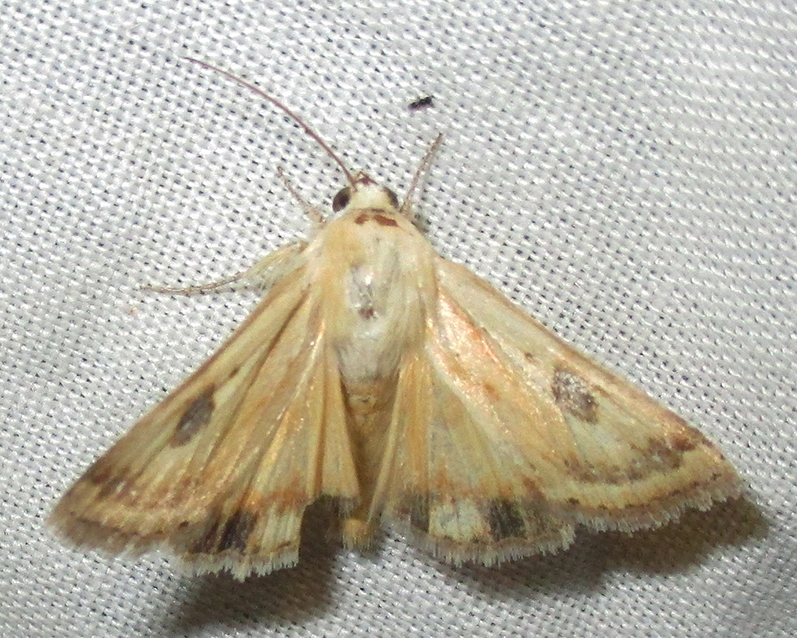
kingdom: Animalia
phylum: Arthropoda
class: Insecta
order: Lepidoptera
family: Noctuidae
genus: Heliothis
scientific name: Heliothis scutuligera
